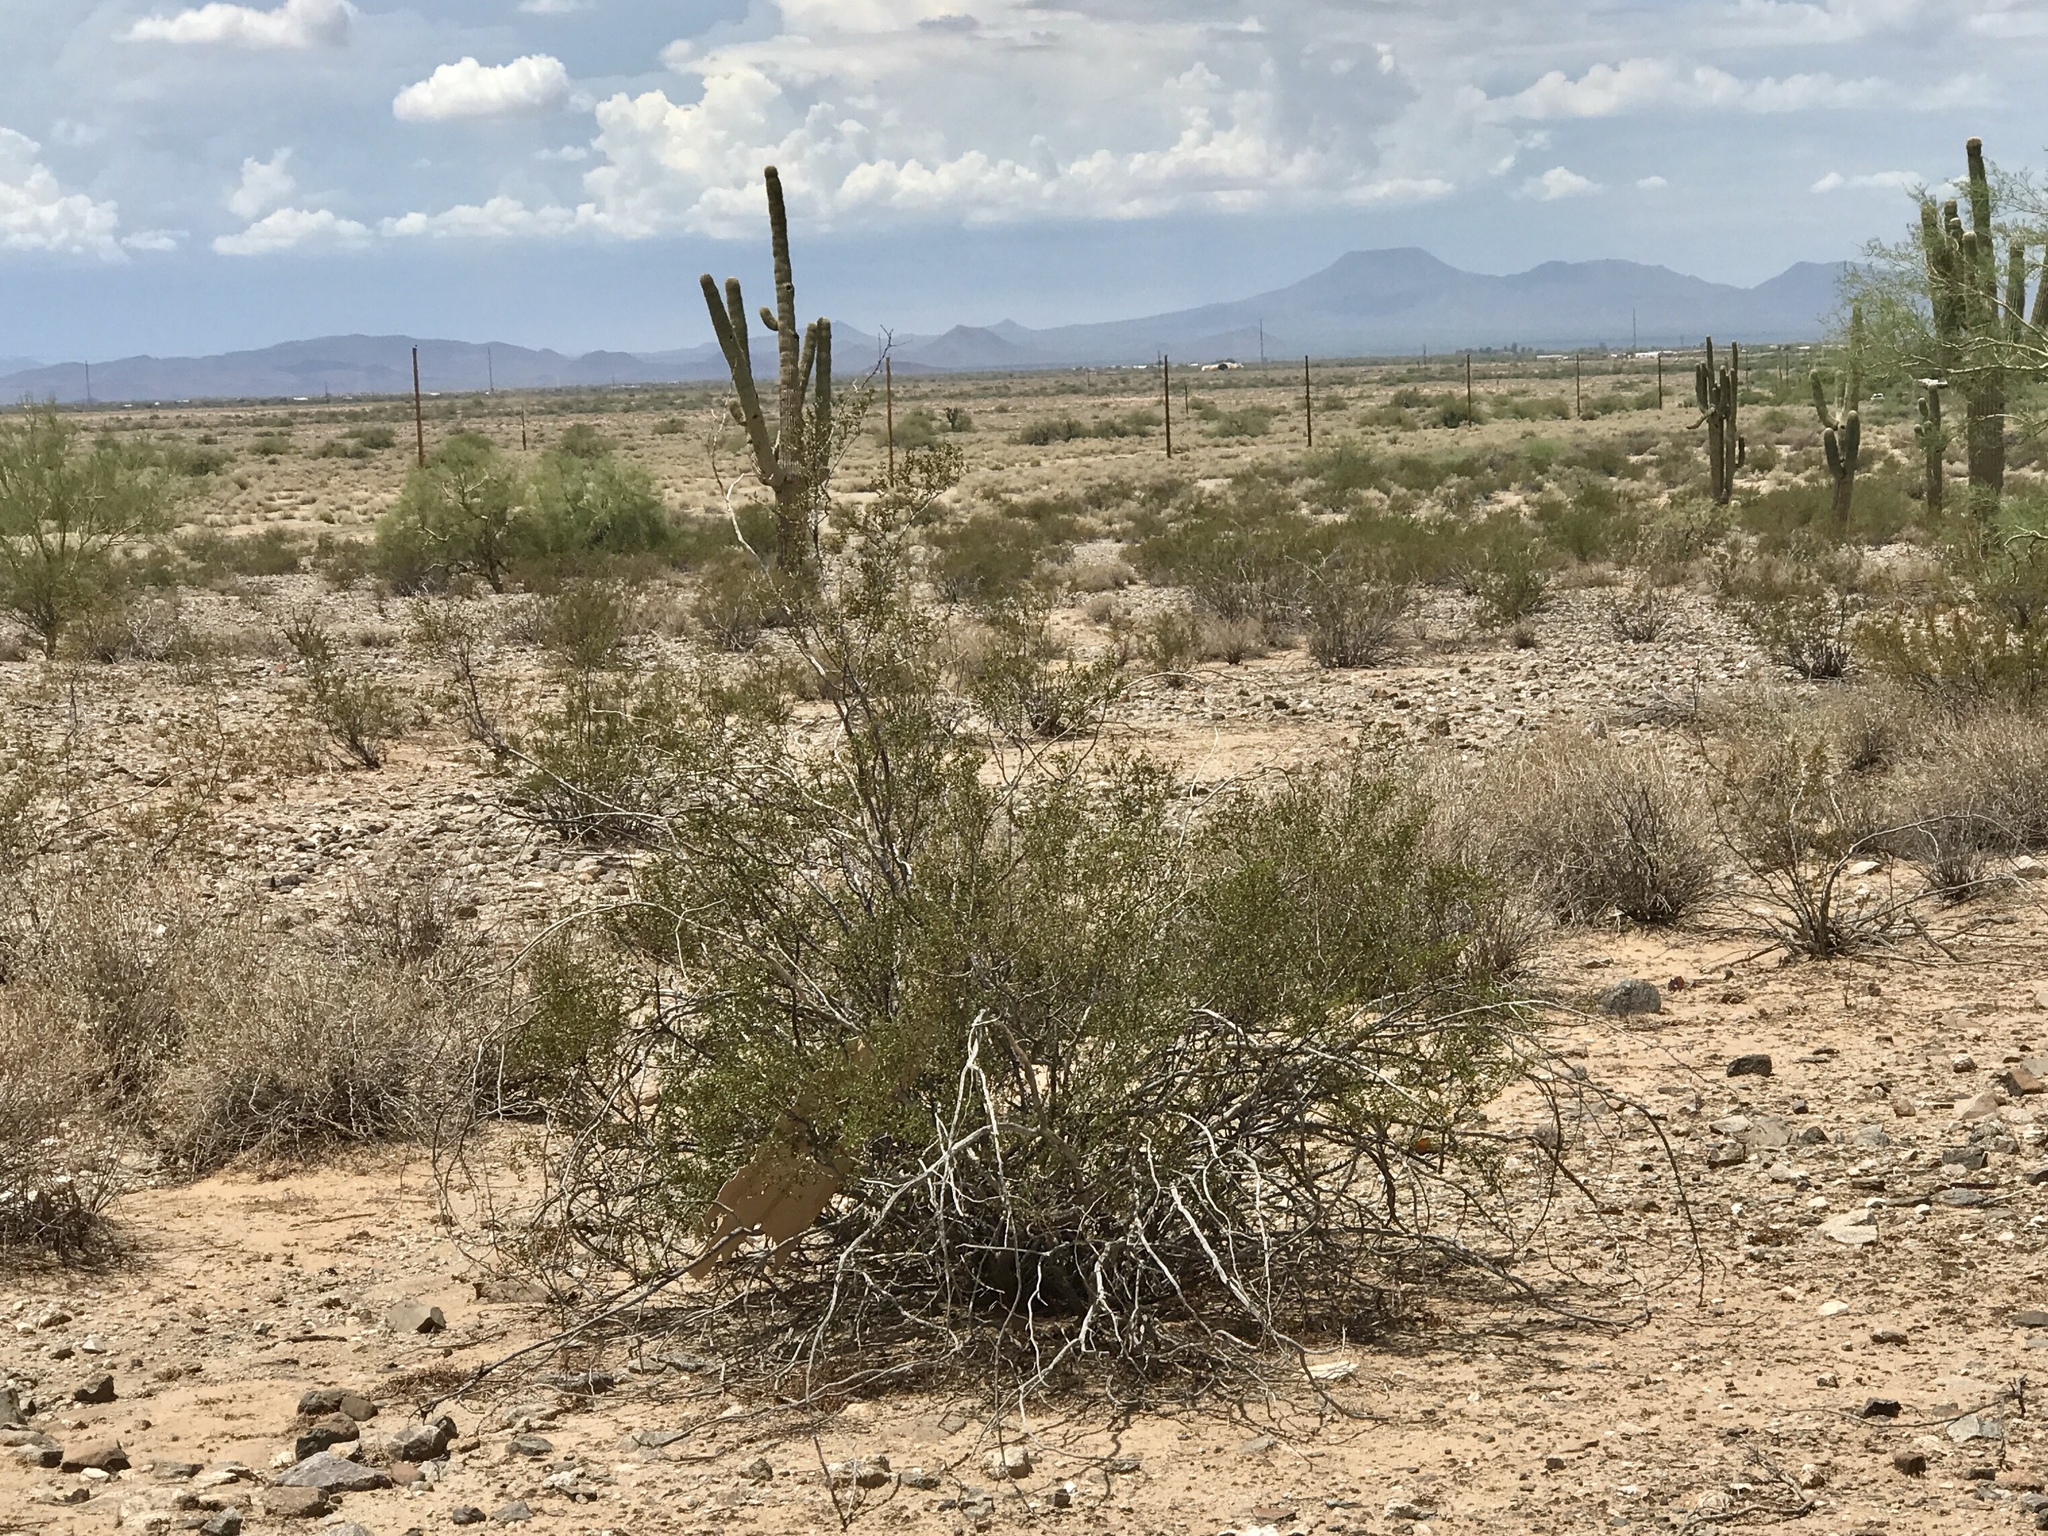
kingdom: Plantae
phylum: Tracheophyta
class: Magnoliopsida
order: Zygophyllales
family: Zygophyllaceae
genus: Larrea
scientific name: Larrea tridentata
